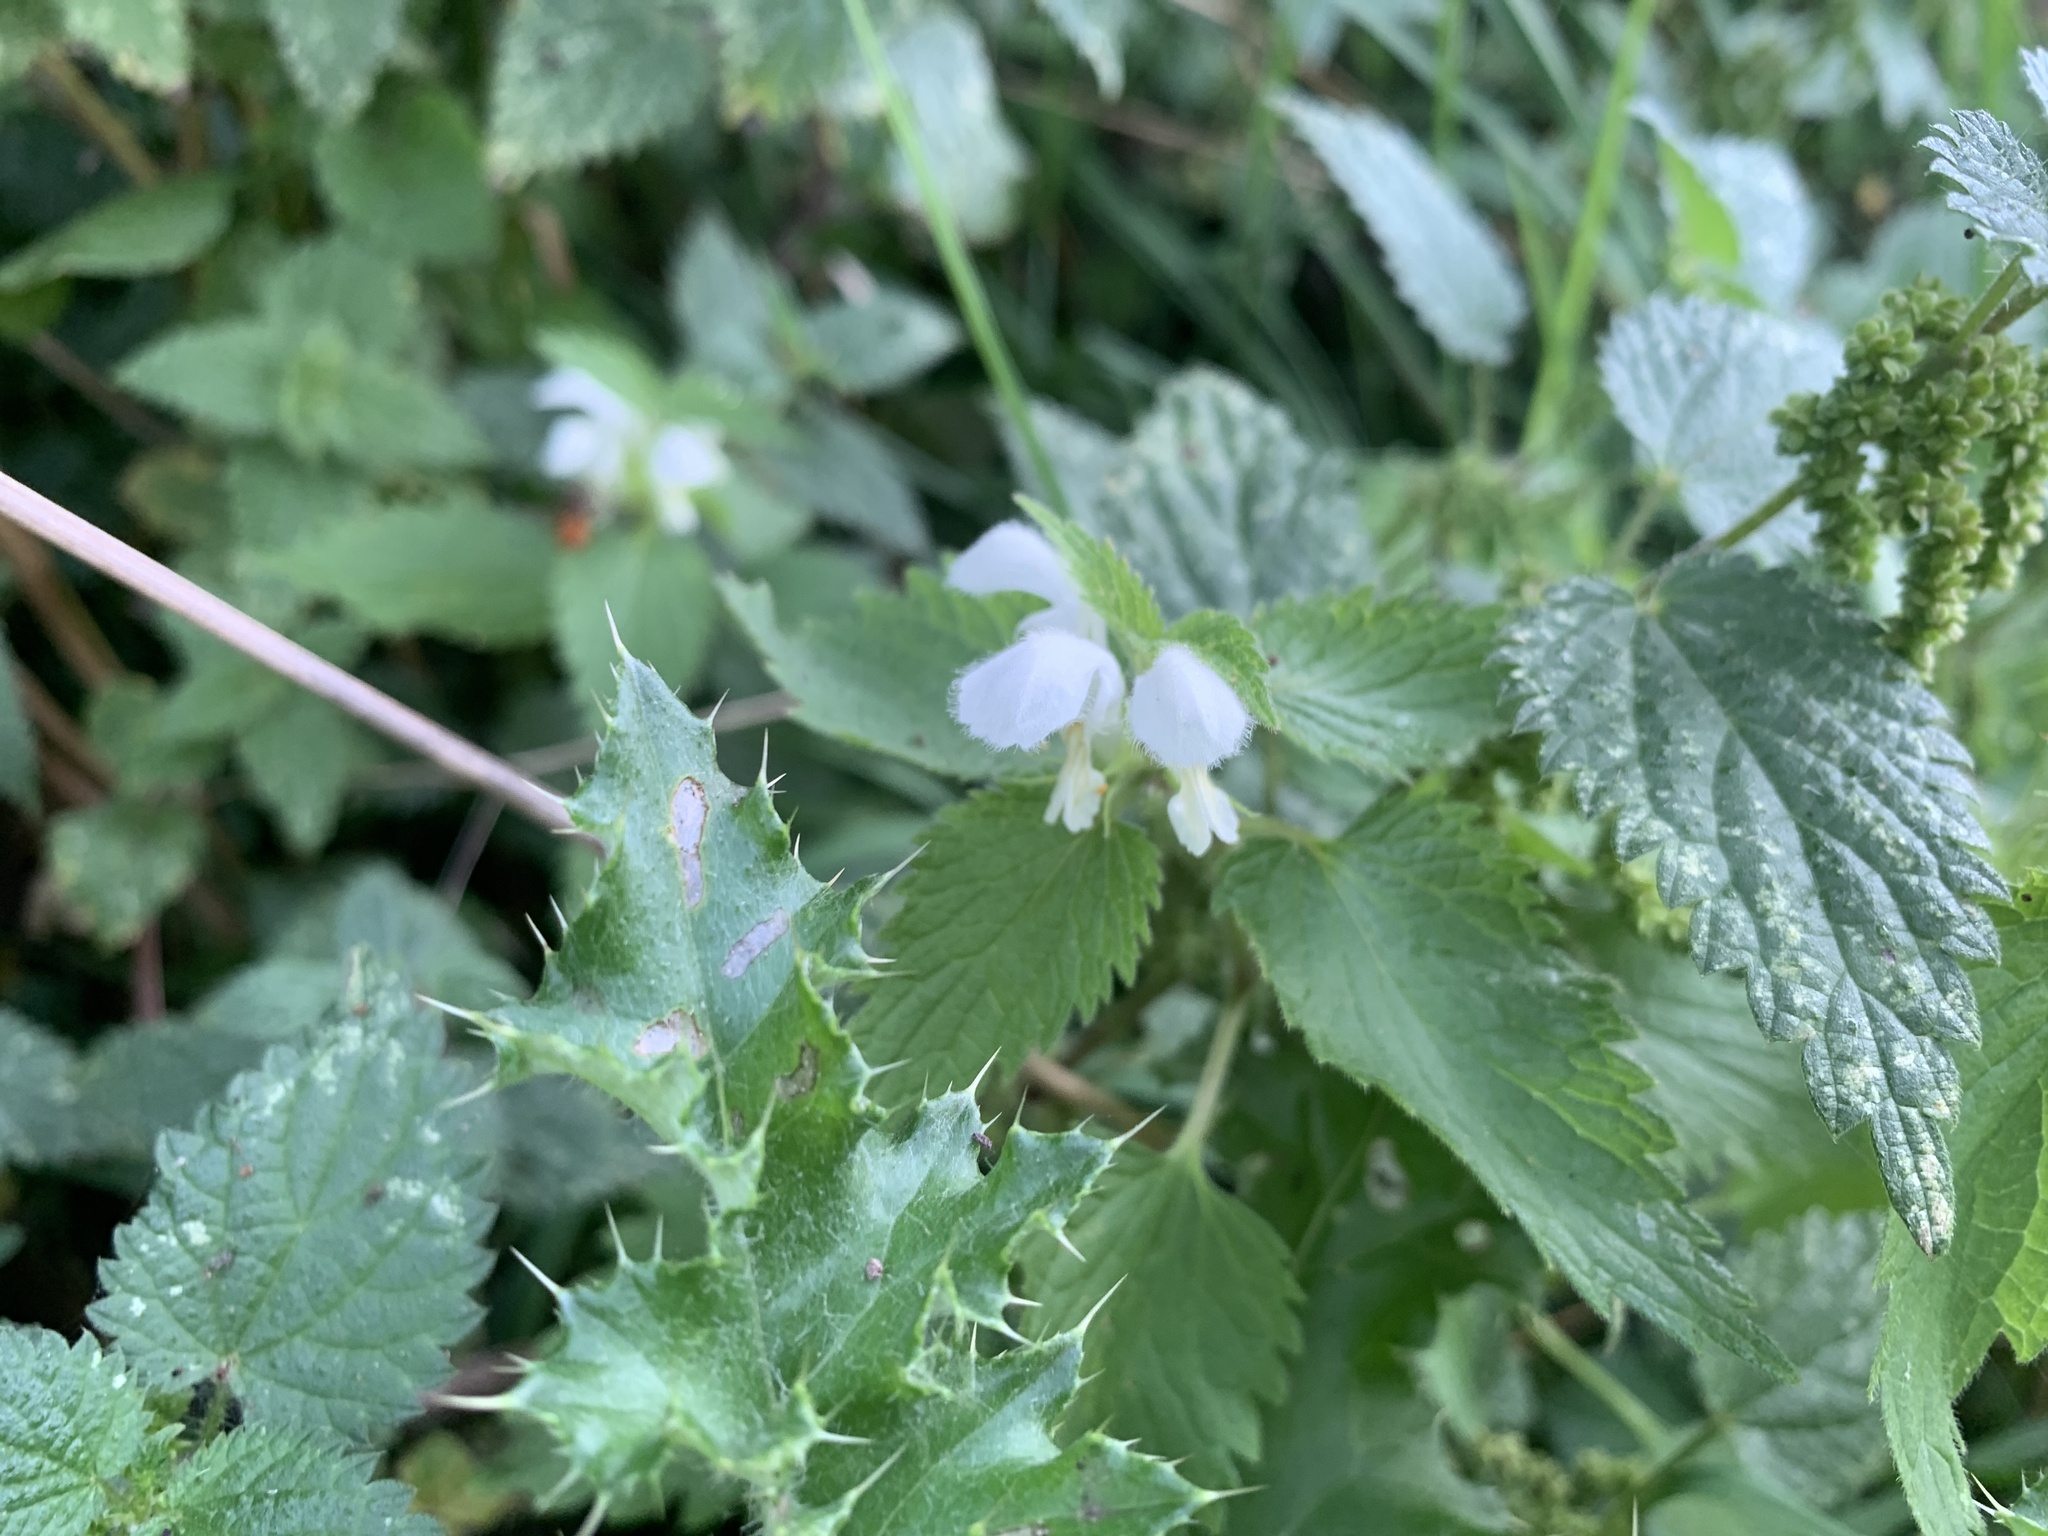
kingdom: Plantae
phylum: Tracheophyta
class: Magnoliopsida
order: Lamiales
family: Lamiaceae
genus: Lamium
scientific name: Lamium album
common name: White dead-nettle
